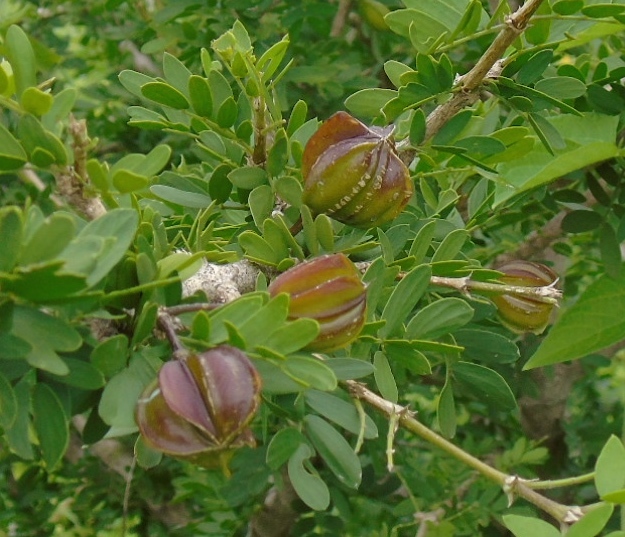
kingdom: Plantae
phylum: Tracheophyta
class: Magnoliopsida
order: Zygophyllales
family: Zygophyllaceae
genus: Guaiacum
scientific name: Guaiacum coulteri
